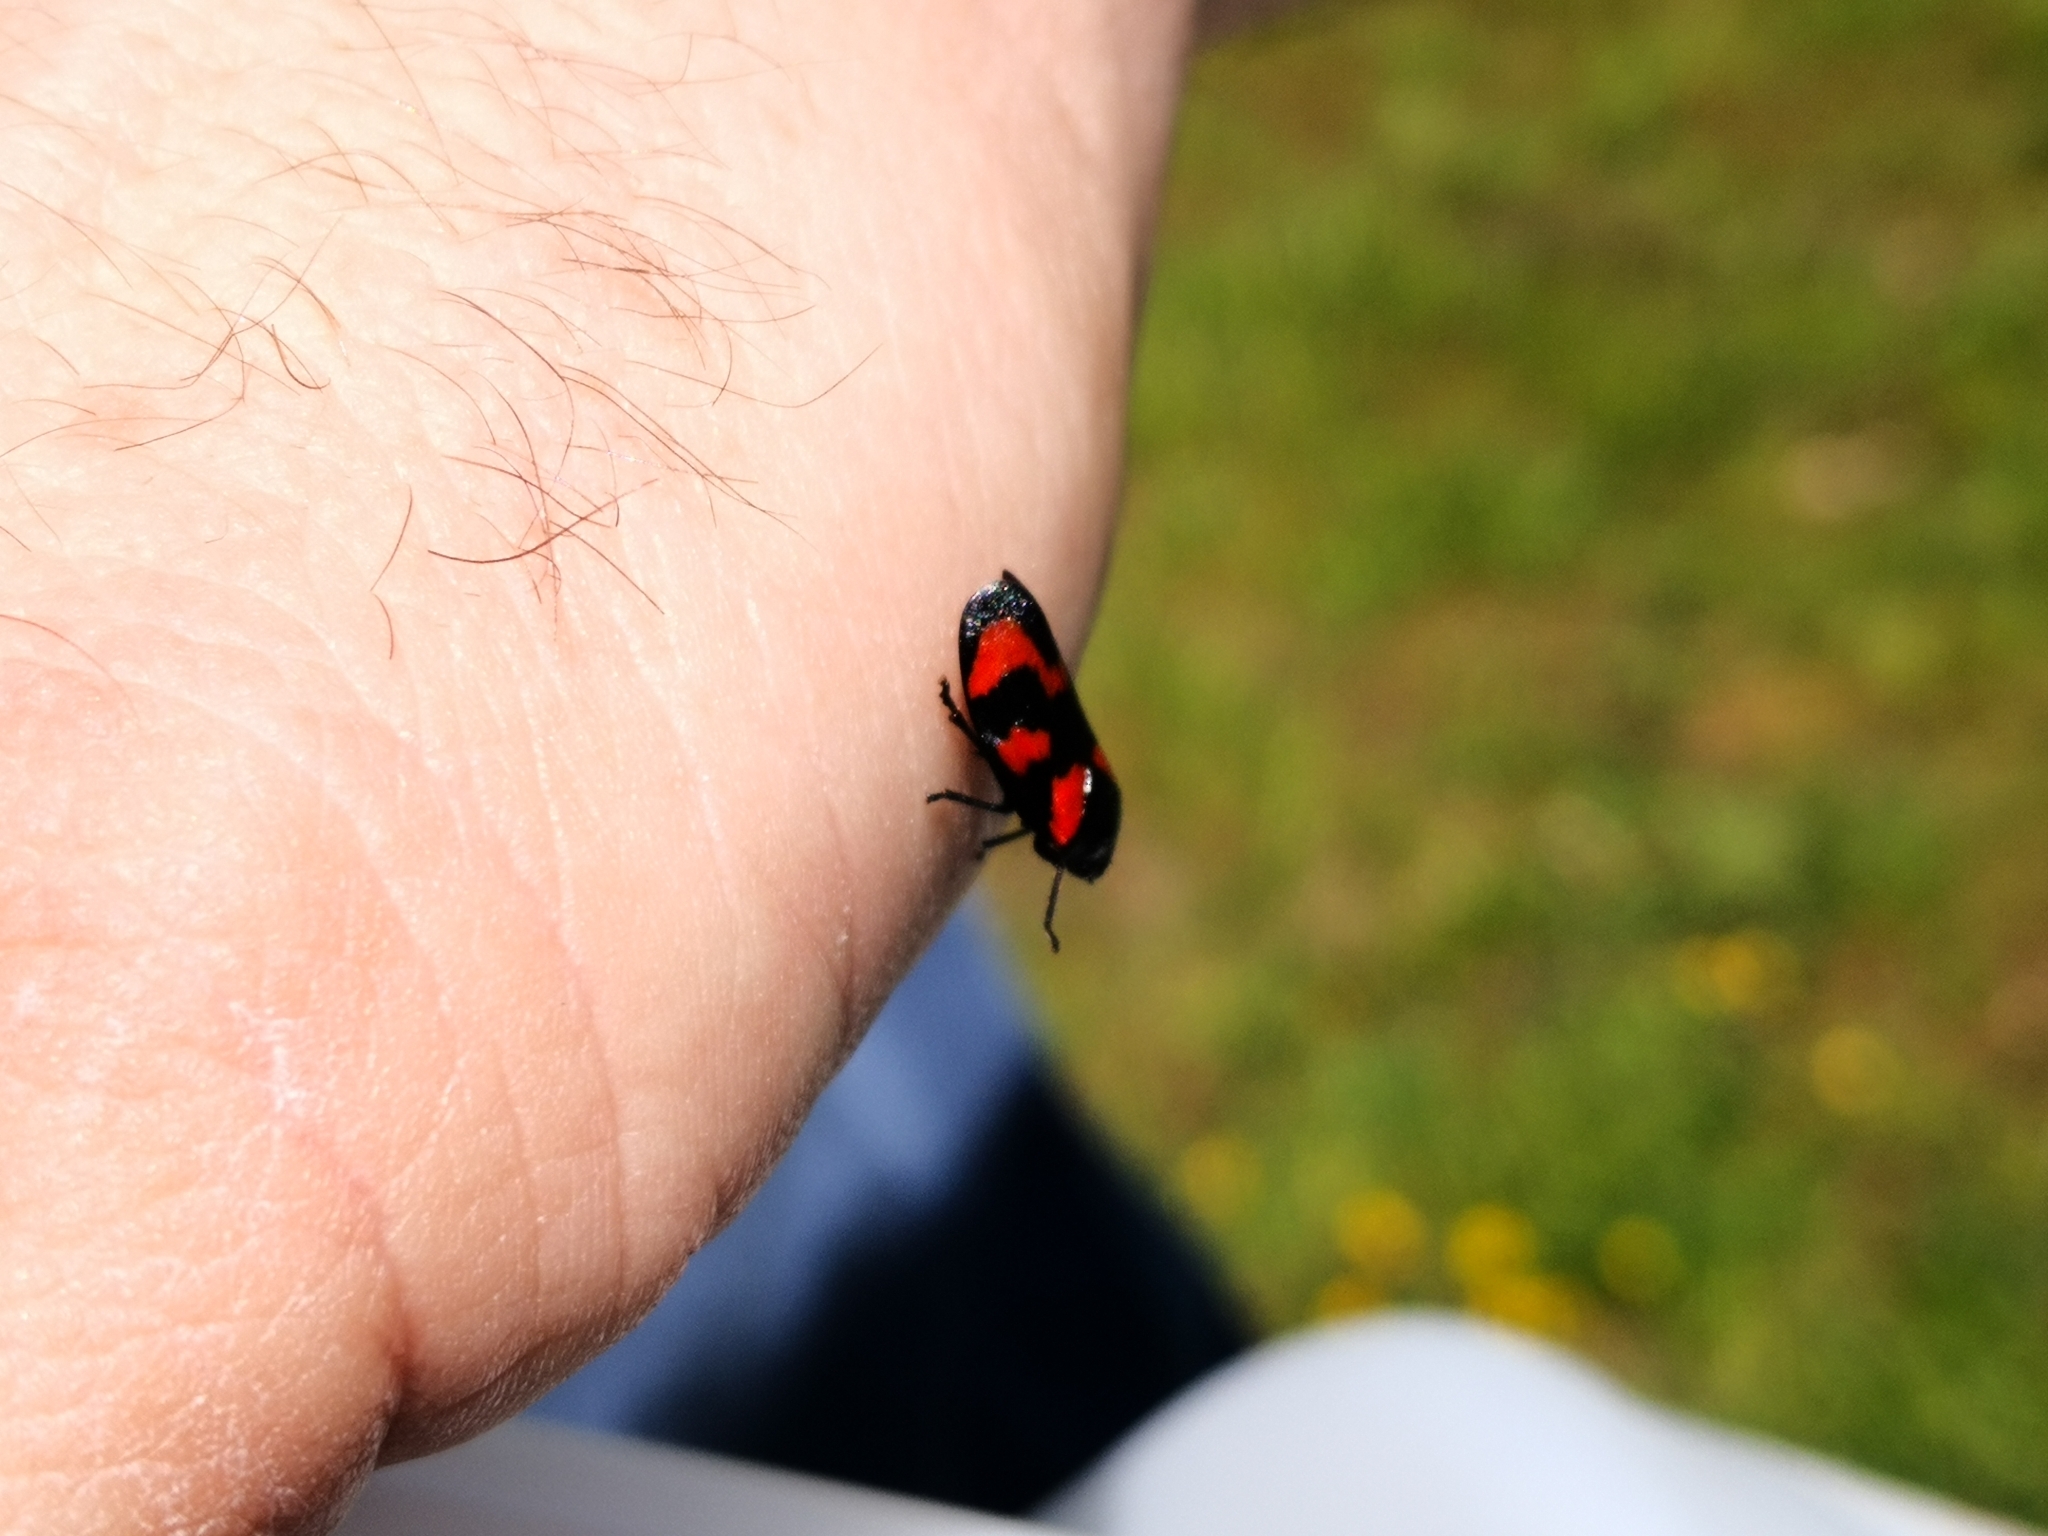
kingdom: Animalia
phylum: Arthropoda
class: Insecta
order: Hemiptera
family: Cercopidae
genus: Cercopis
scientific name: Cercopis vulnerata
